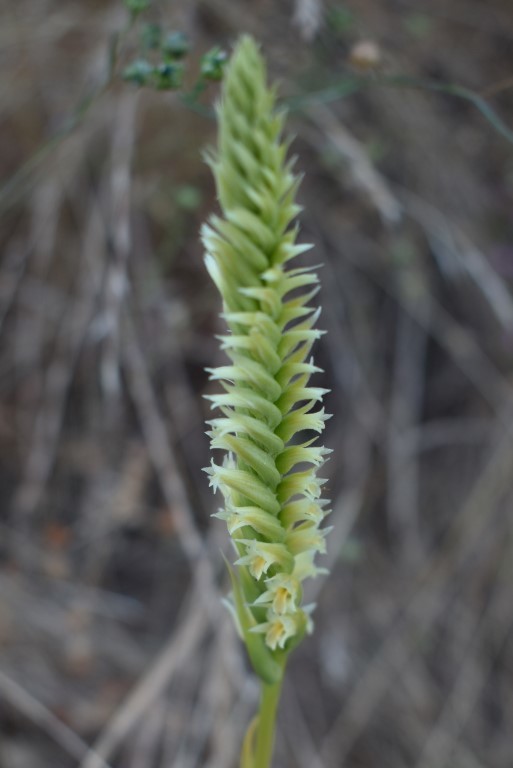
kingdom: Plantae
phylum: Tracheophyta
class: Liliopsida
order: Asparagales
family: Orchidaceae
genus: Spiranthes
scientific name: Spiranthes porrifolia
